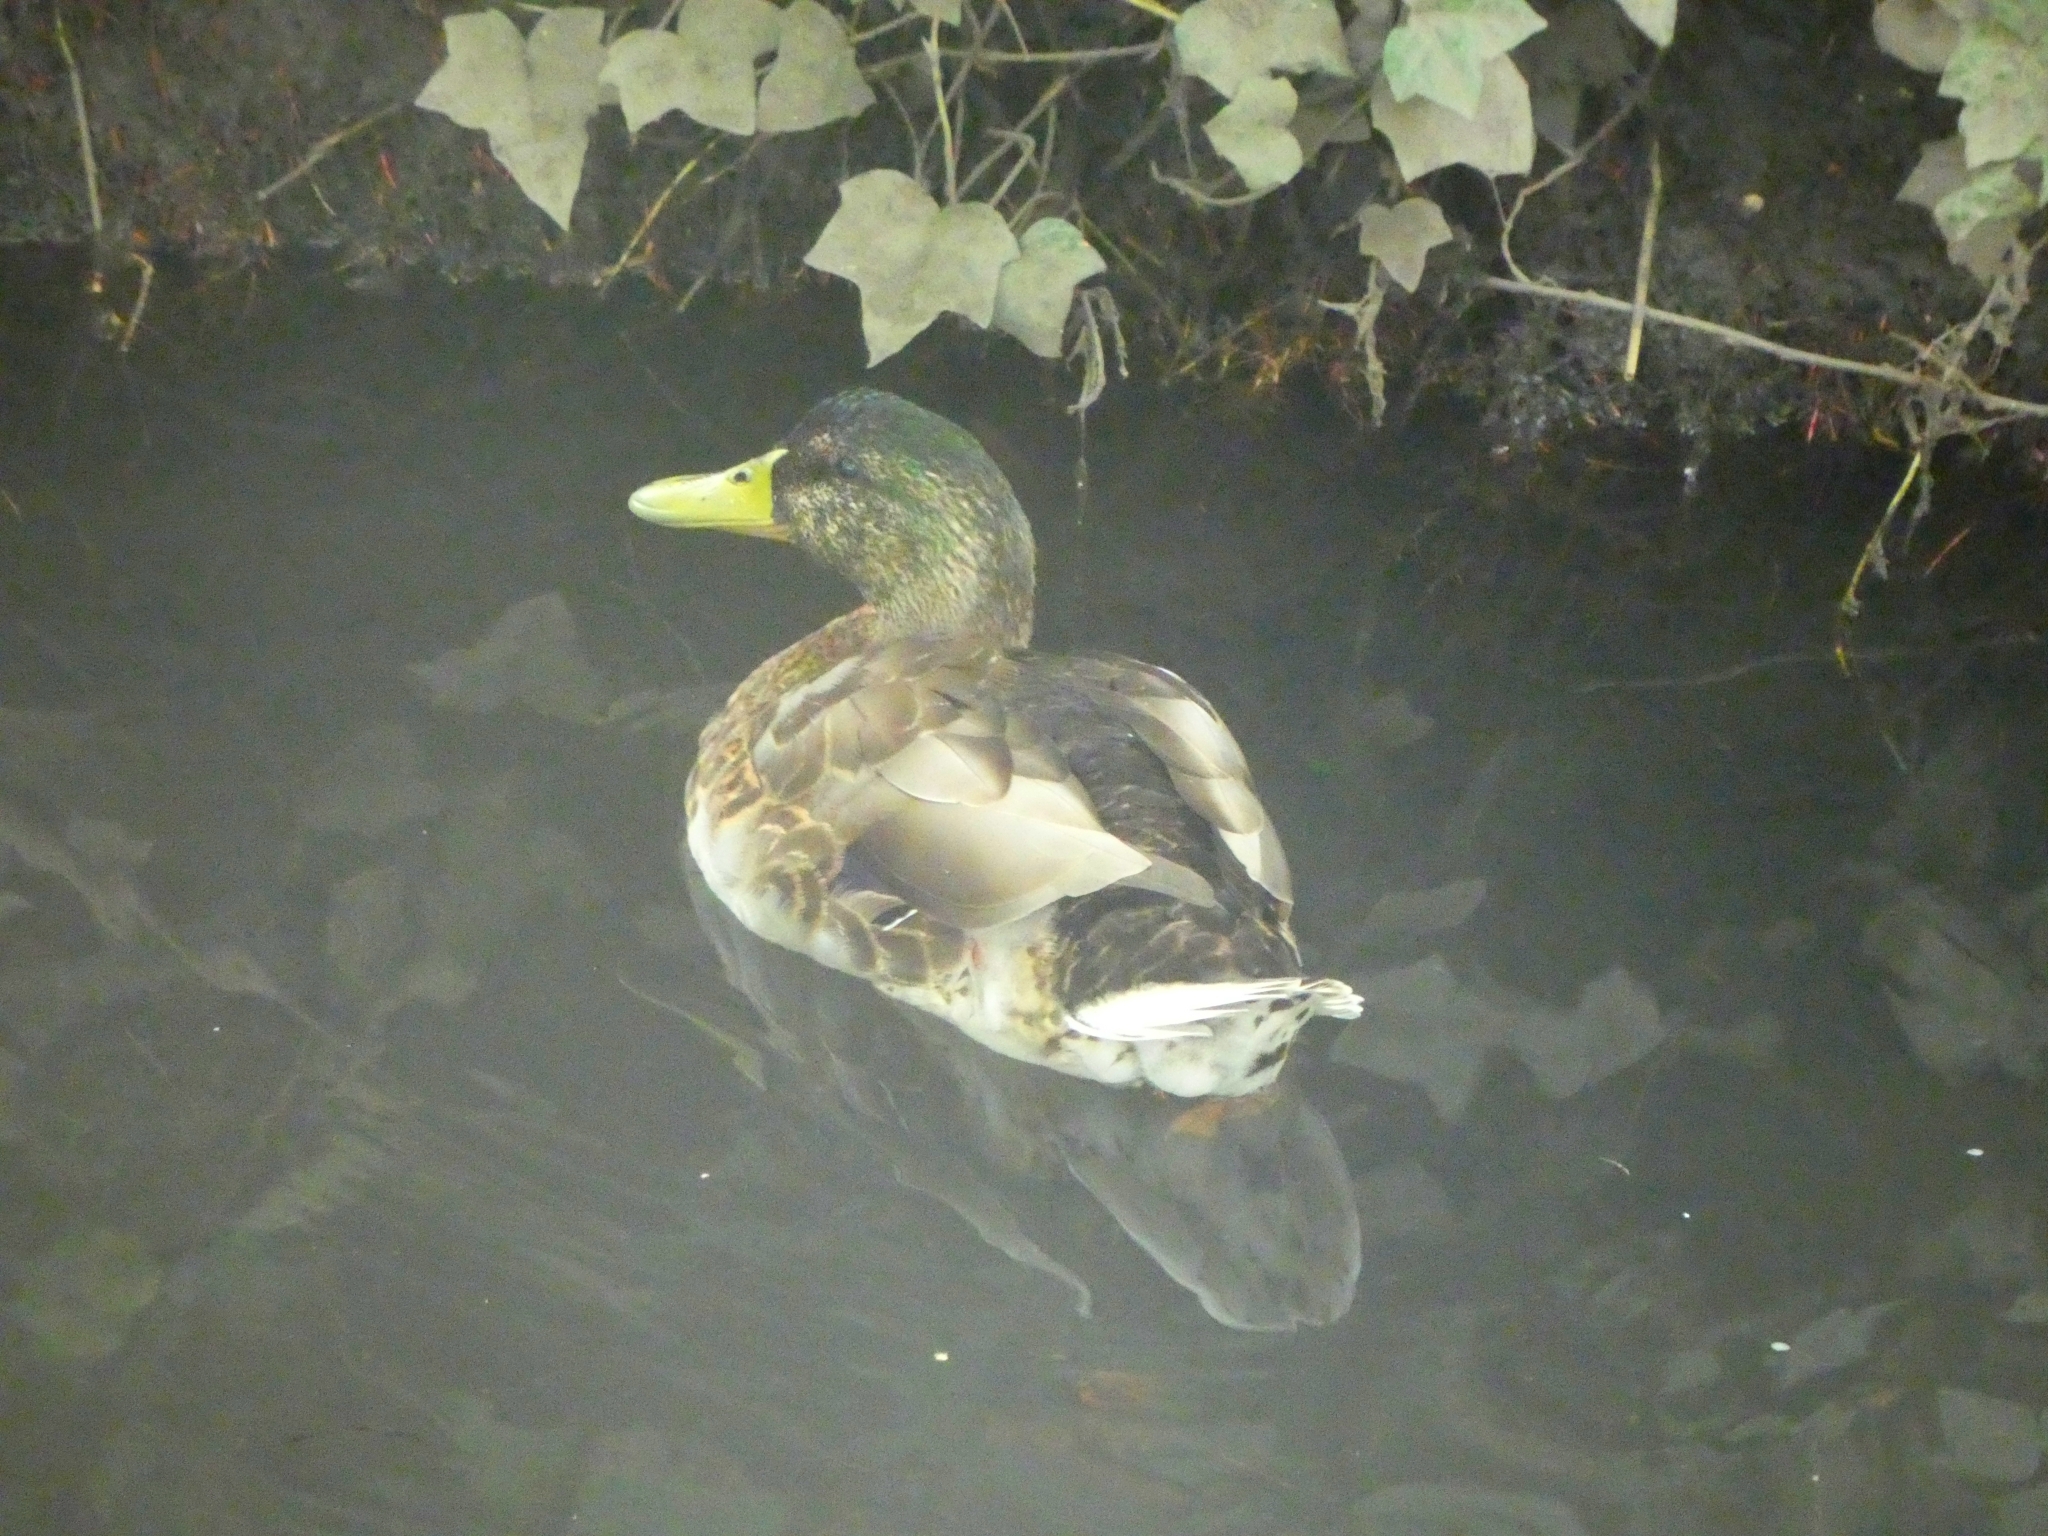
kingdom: Animalia
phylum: Chordata
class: Aves
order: Anseriformes
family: Anatidae
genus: Anas
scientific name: Anas platyrhynchos
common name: Mallard
